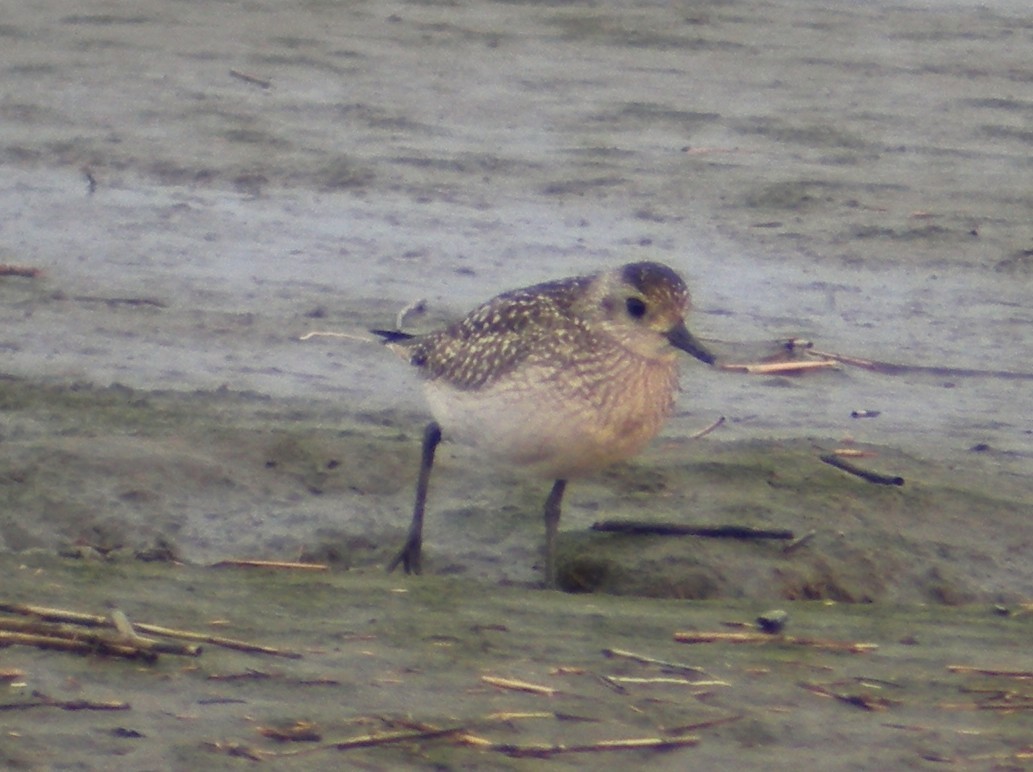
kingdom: Animalia
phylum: Chordata
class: Aves
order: Charadriiformes
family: Charadriidae
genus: Pluvialis
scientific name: Pluvialis squatarola
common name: Grey plover
